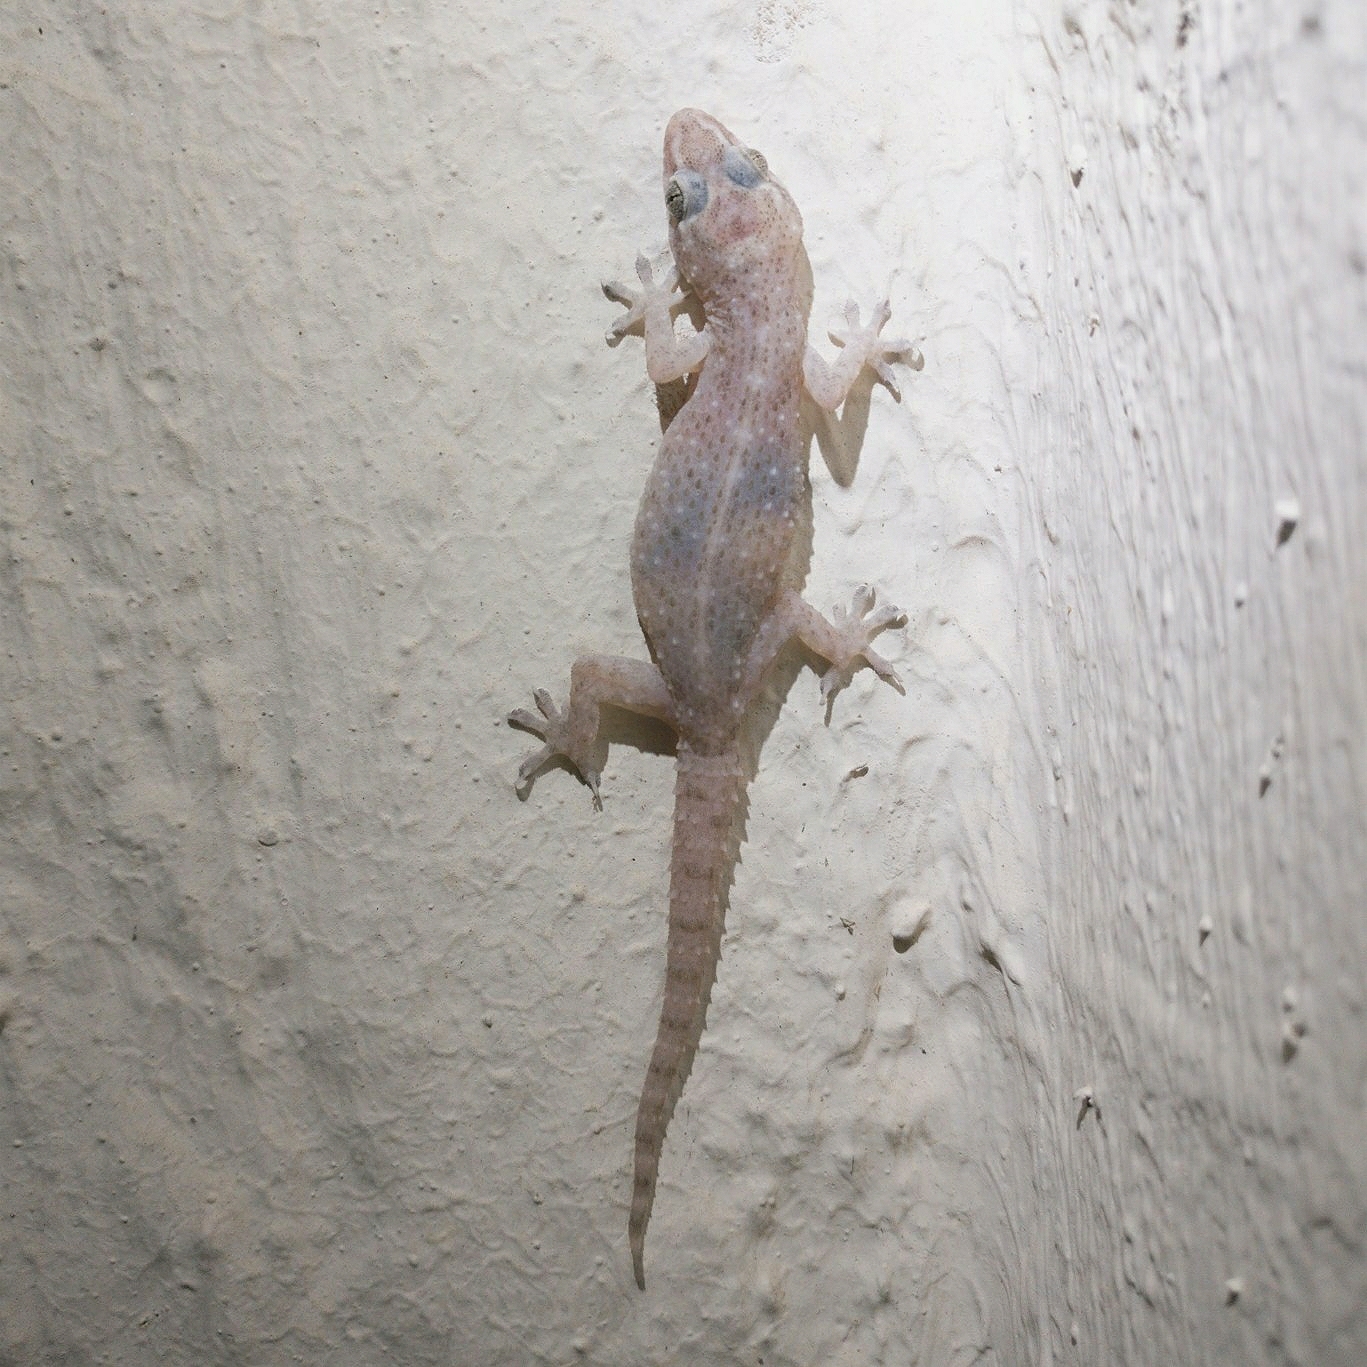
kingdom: Animalia
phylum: Chordata
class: Squamata
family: Gekkonidae
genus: Hemidactylus
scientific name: Hemidactylus brookii
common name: Brook's house gecko
